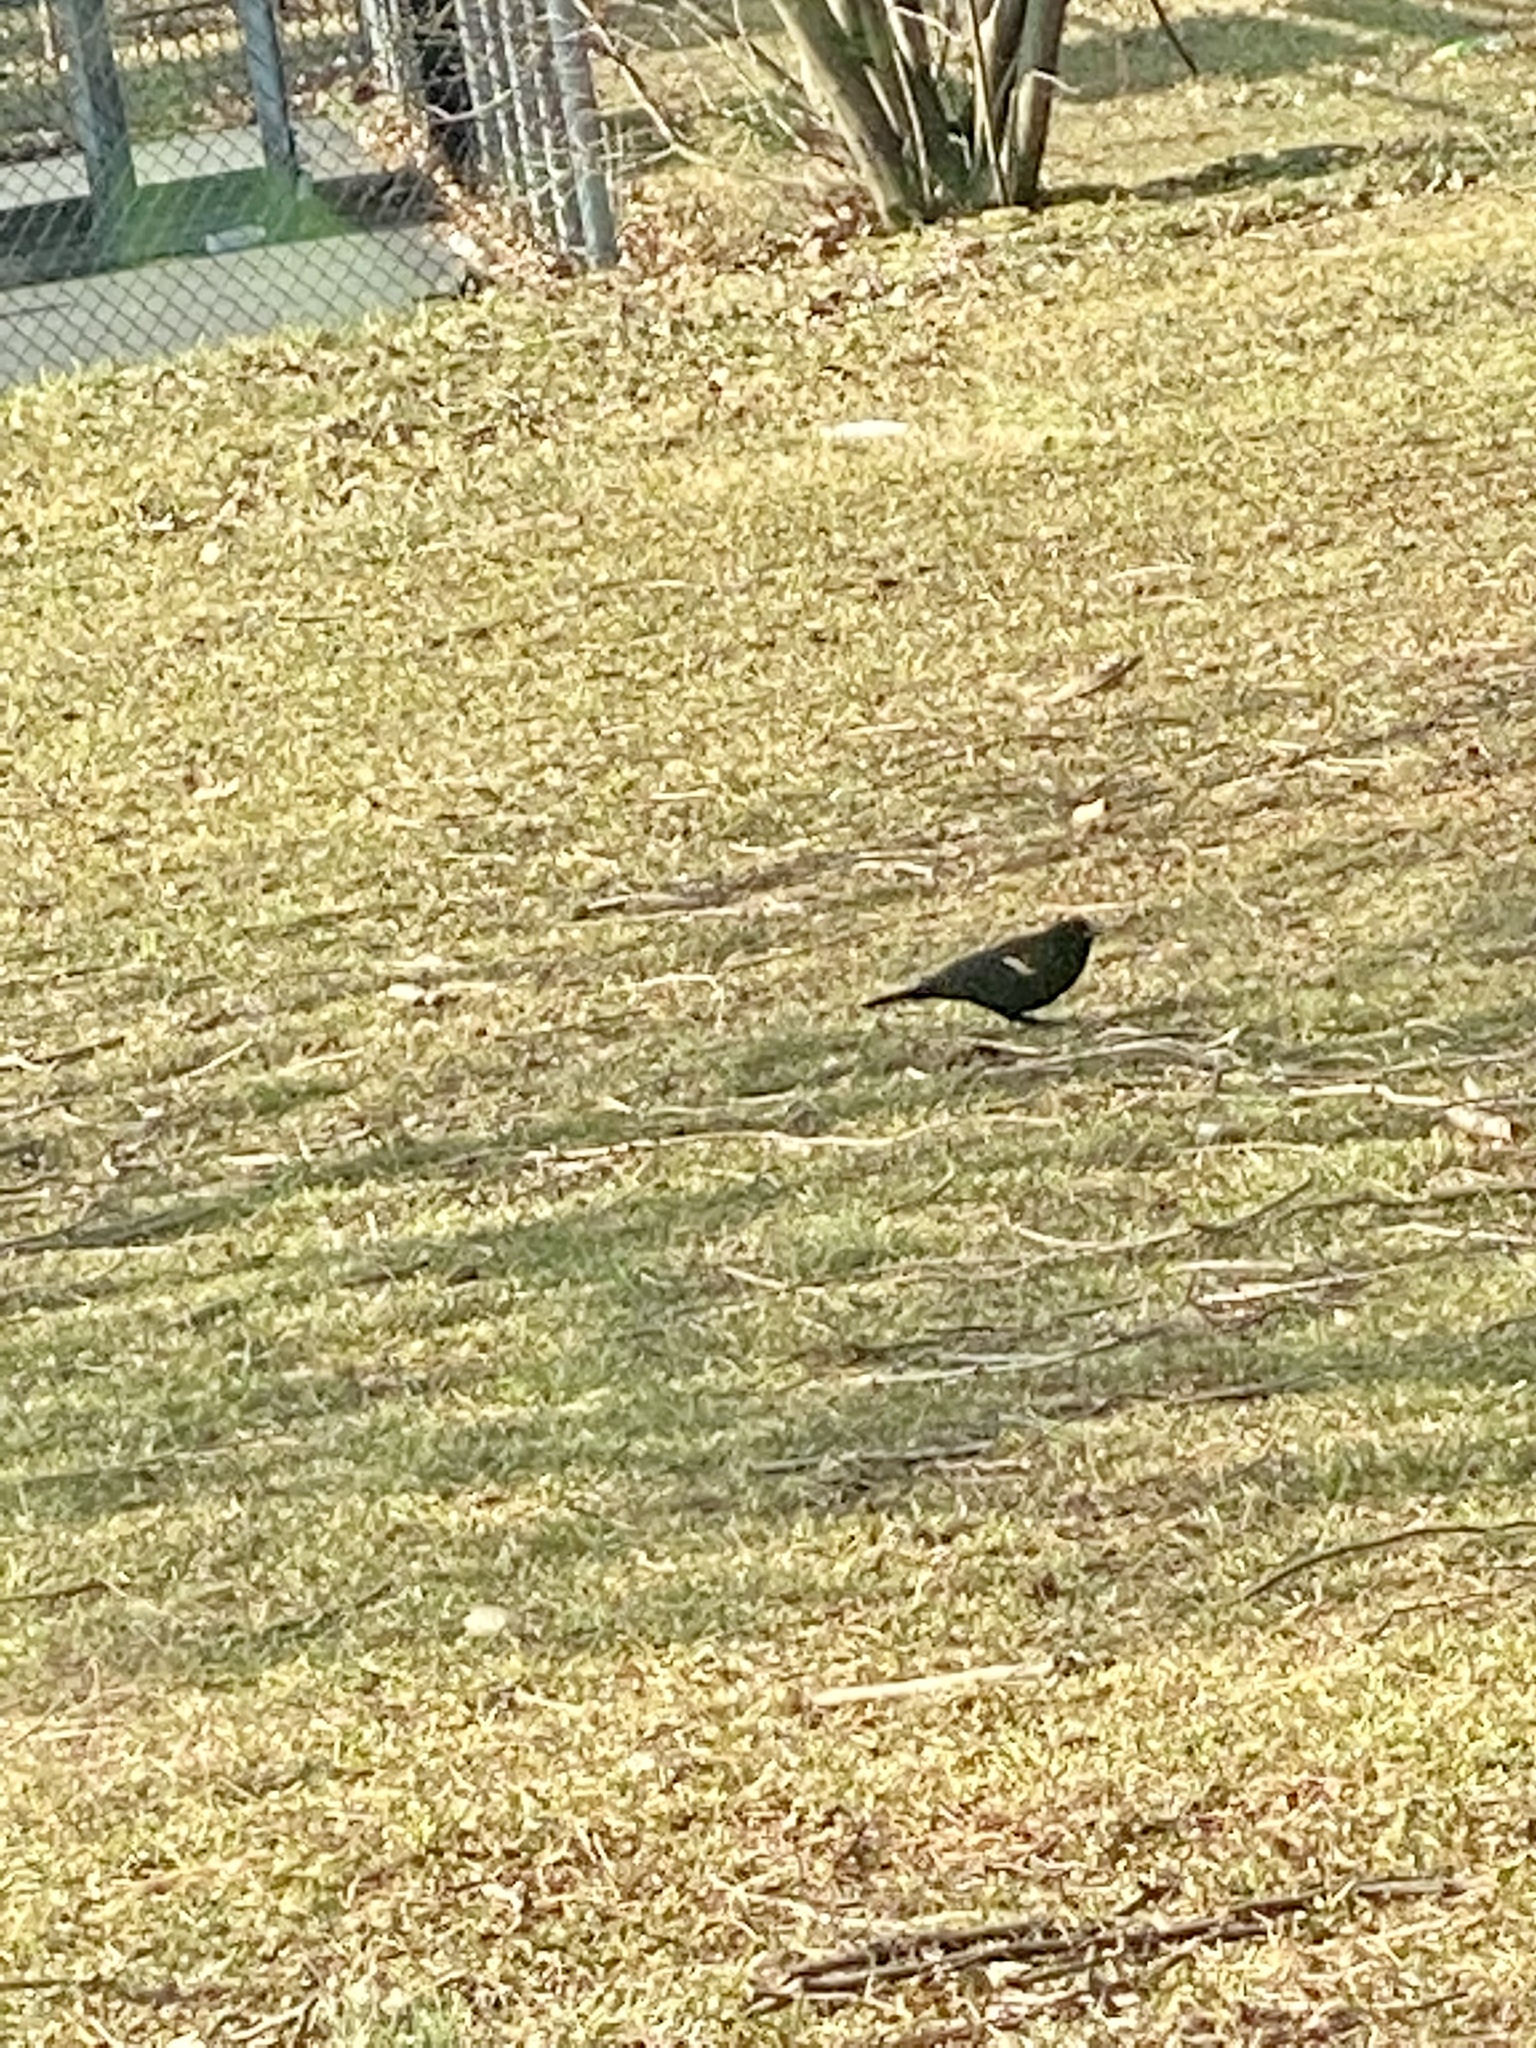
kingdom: Animalia
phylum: Chordata
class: Aves
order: Passeriformes
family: Icteridae
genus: Agelaius
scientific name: Agelaius phoeniceus
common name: Red-winged blackbird
